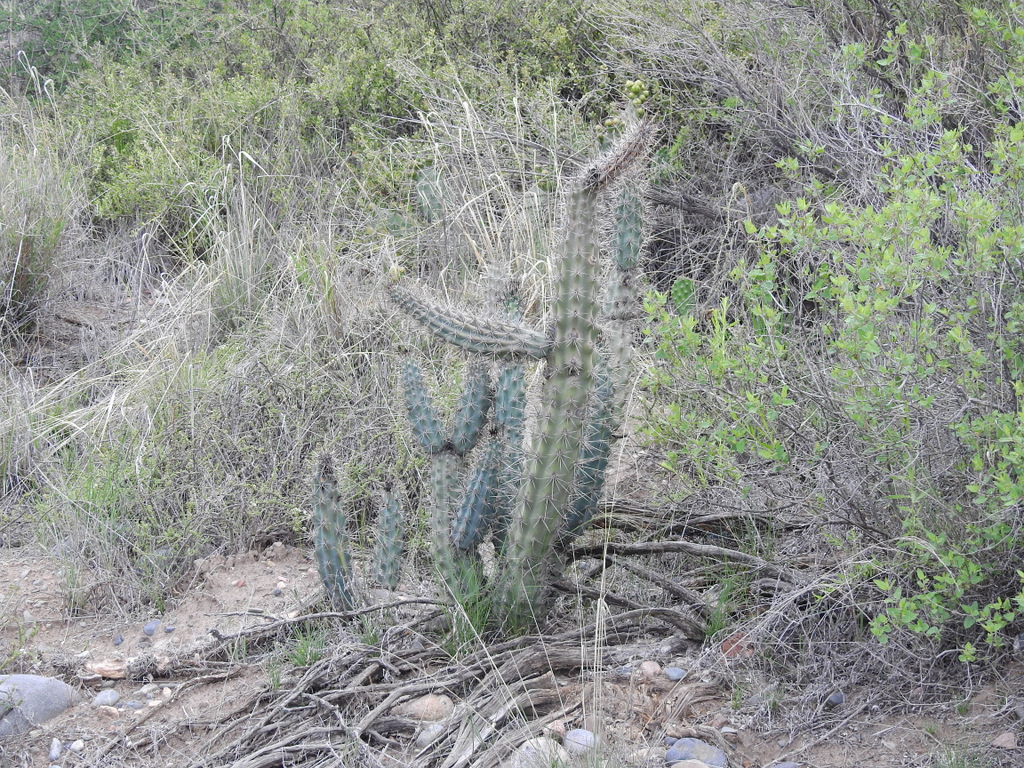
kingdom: Plantae
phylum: Tracheophyta
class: Magnoliopsida
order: Caryophyllales
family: Cactaceae
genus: Cereus
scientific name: Cereus aethiops
